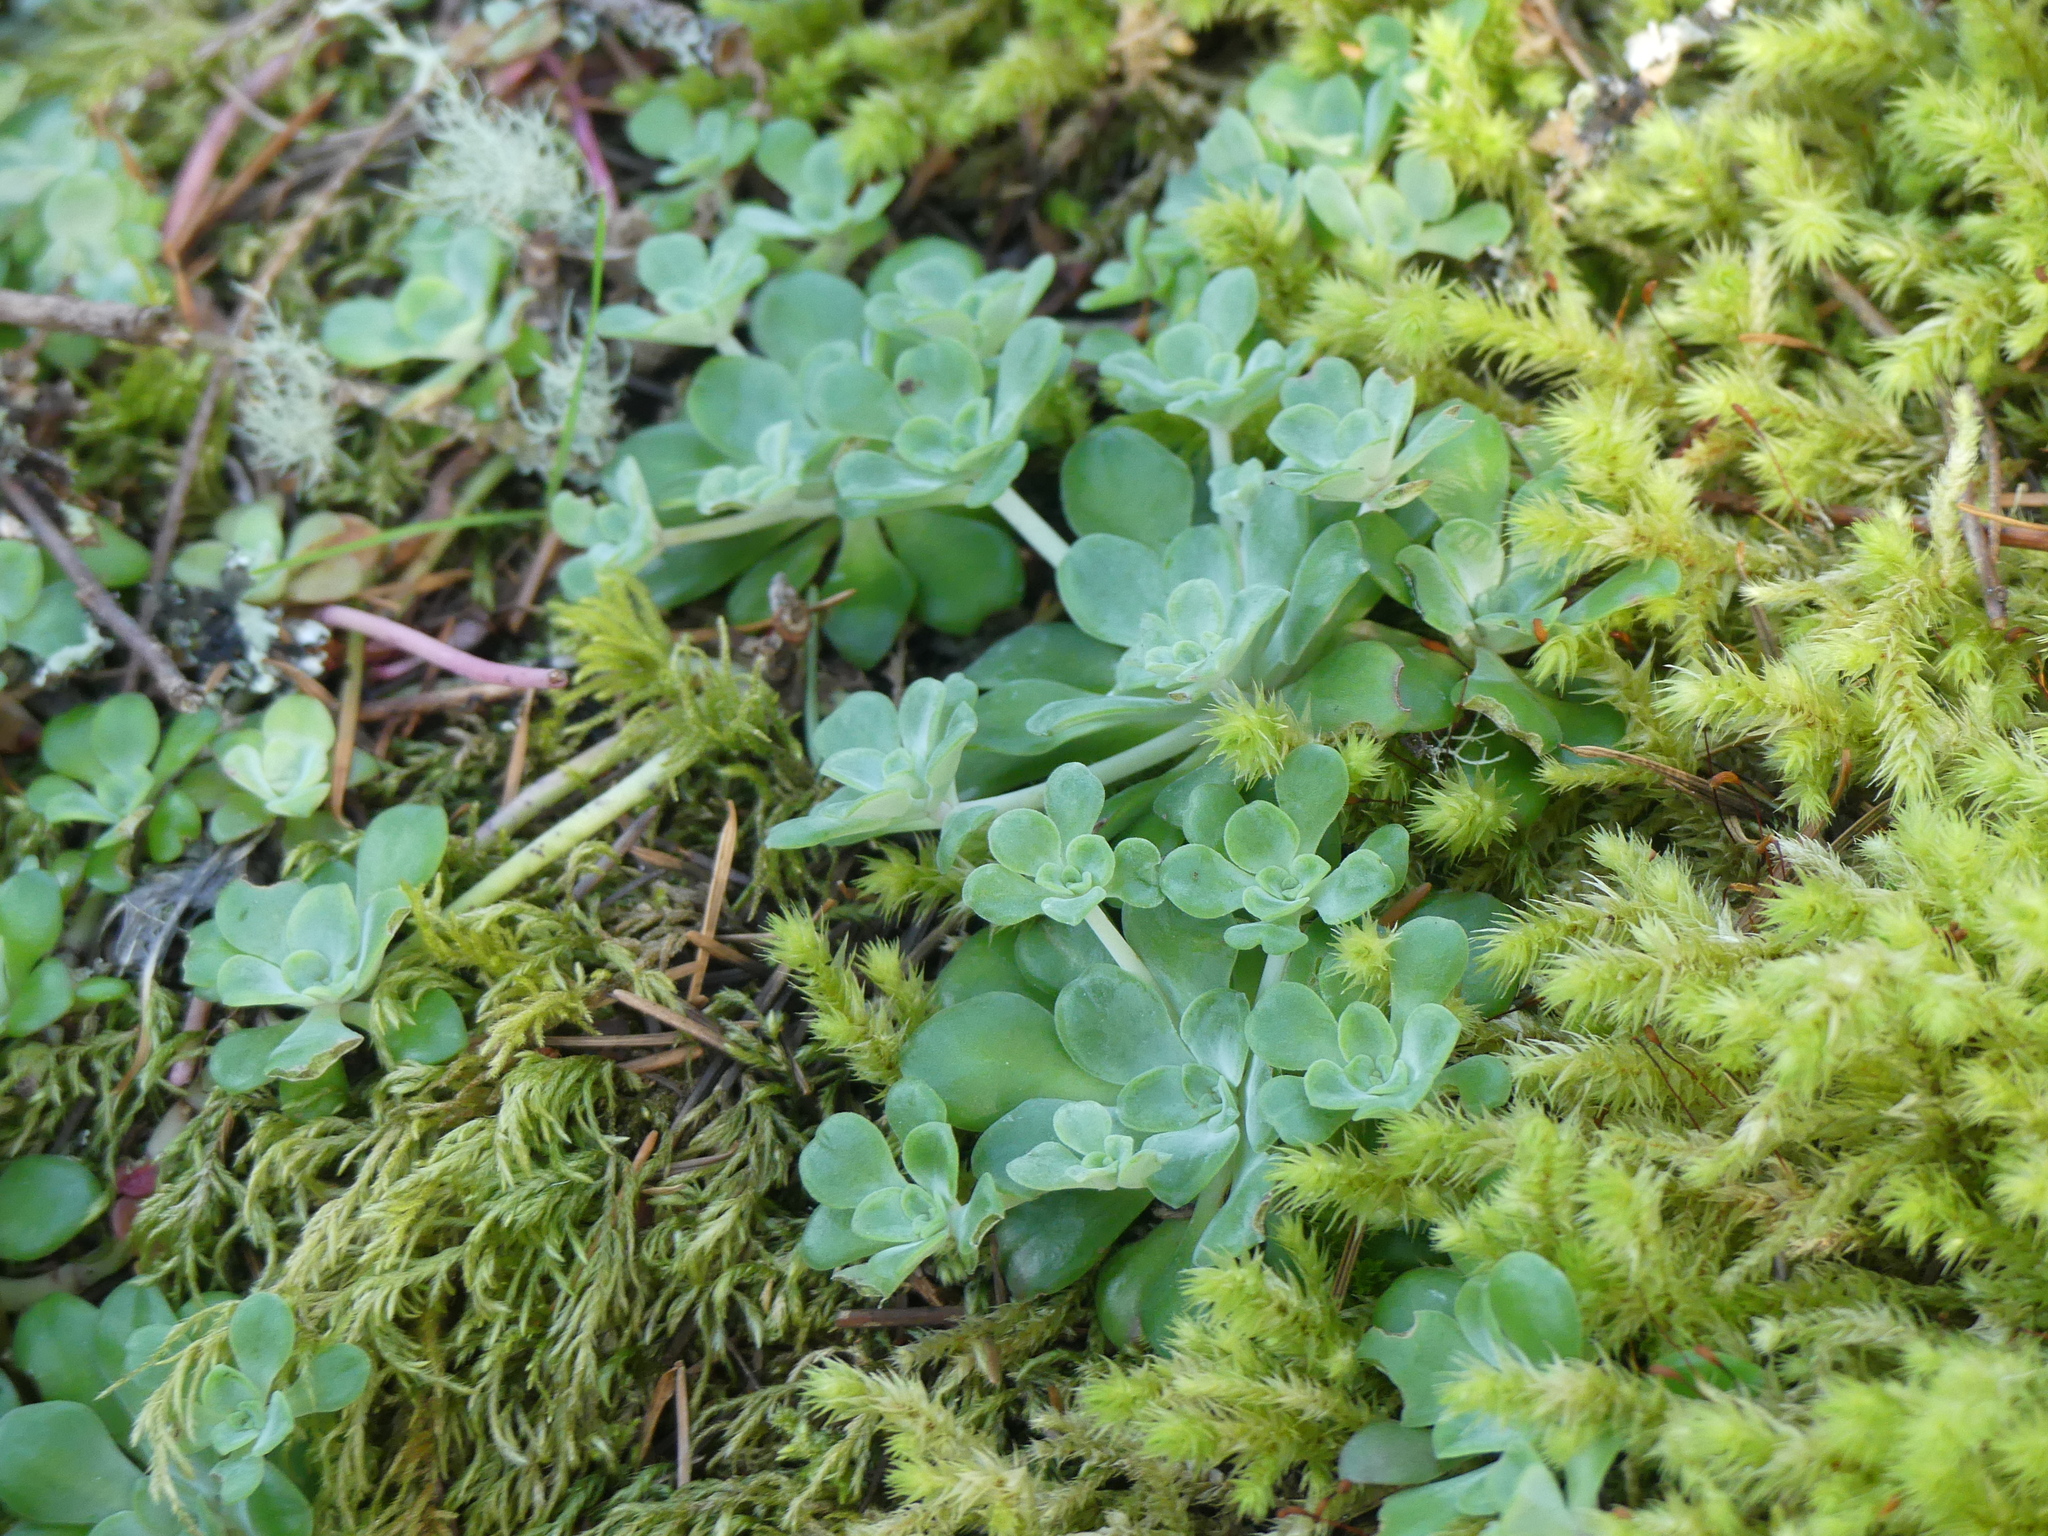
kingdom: Plantae
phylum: Tracheophyta
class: Magnoliopsida
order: Saxifragales
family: Crassulaceae
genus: Sedum
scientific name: Sedum spathulifolium
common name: Colorado stonecrop
